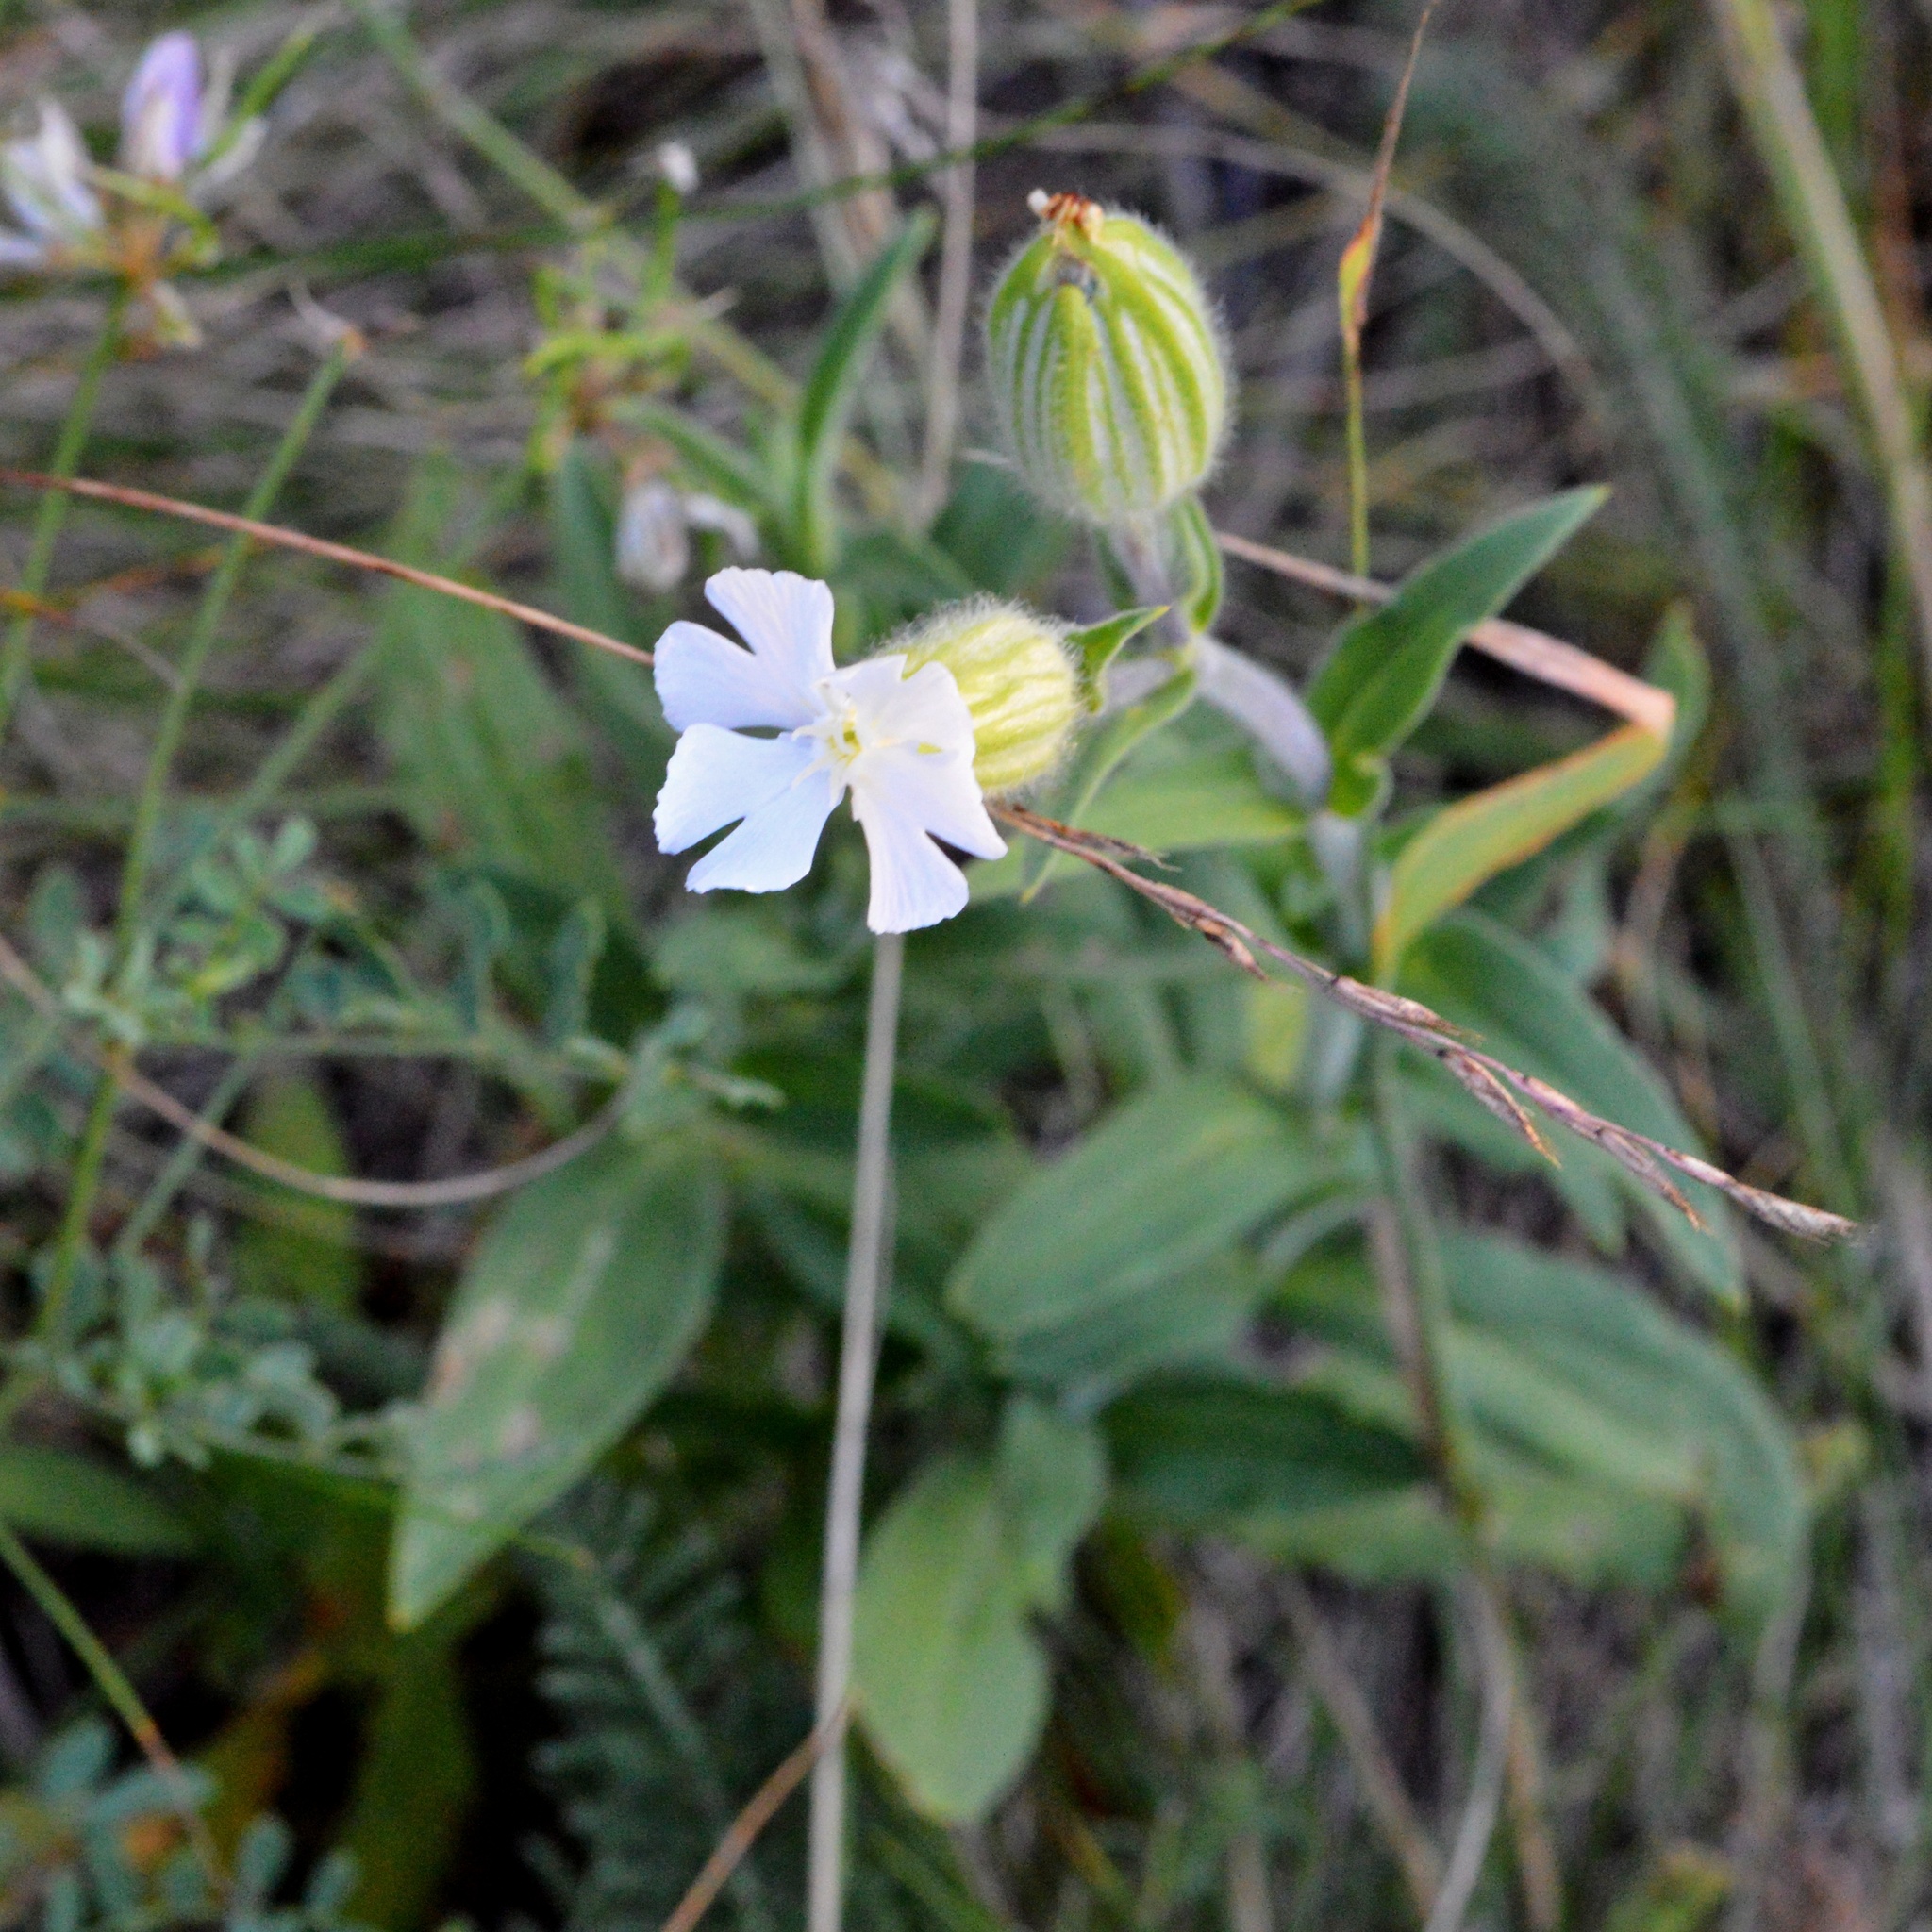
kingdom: Plantae
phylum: Tracheophyta
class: Magnoliopsida
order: Caryophyllales
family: Caryophyllaceae
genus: Silene
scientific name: Silene latifolia
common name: White campion
